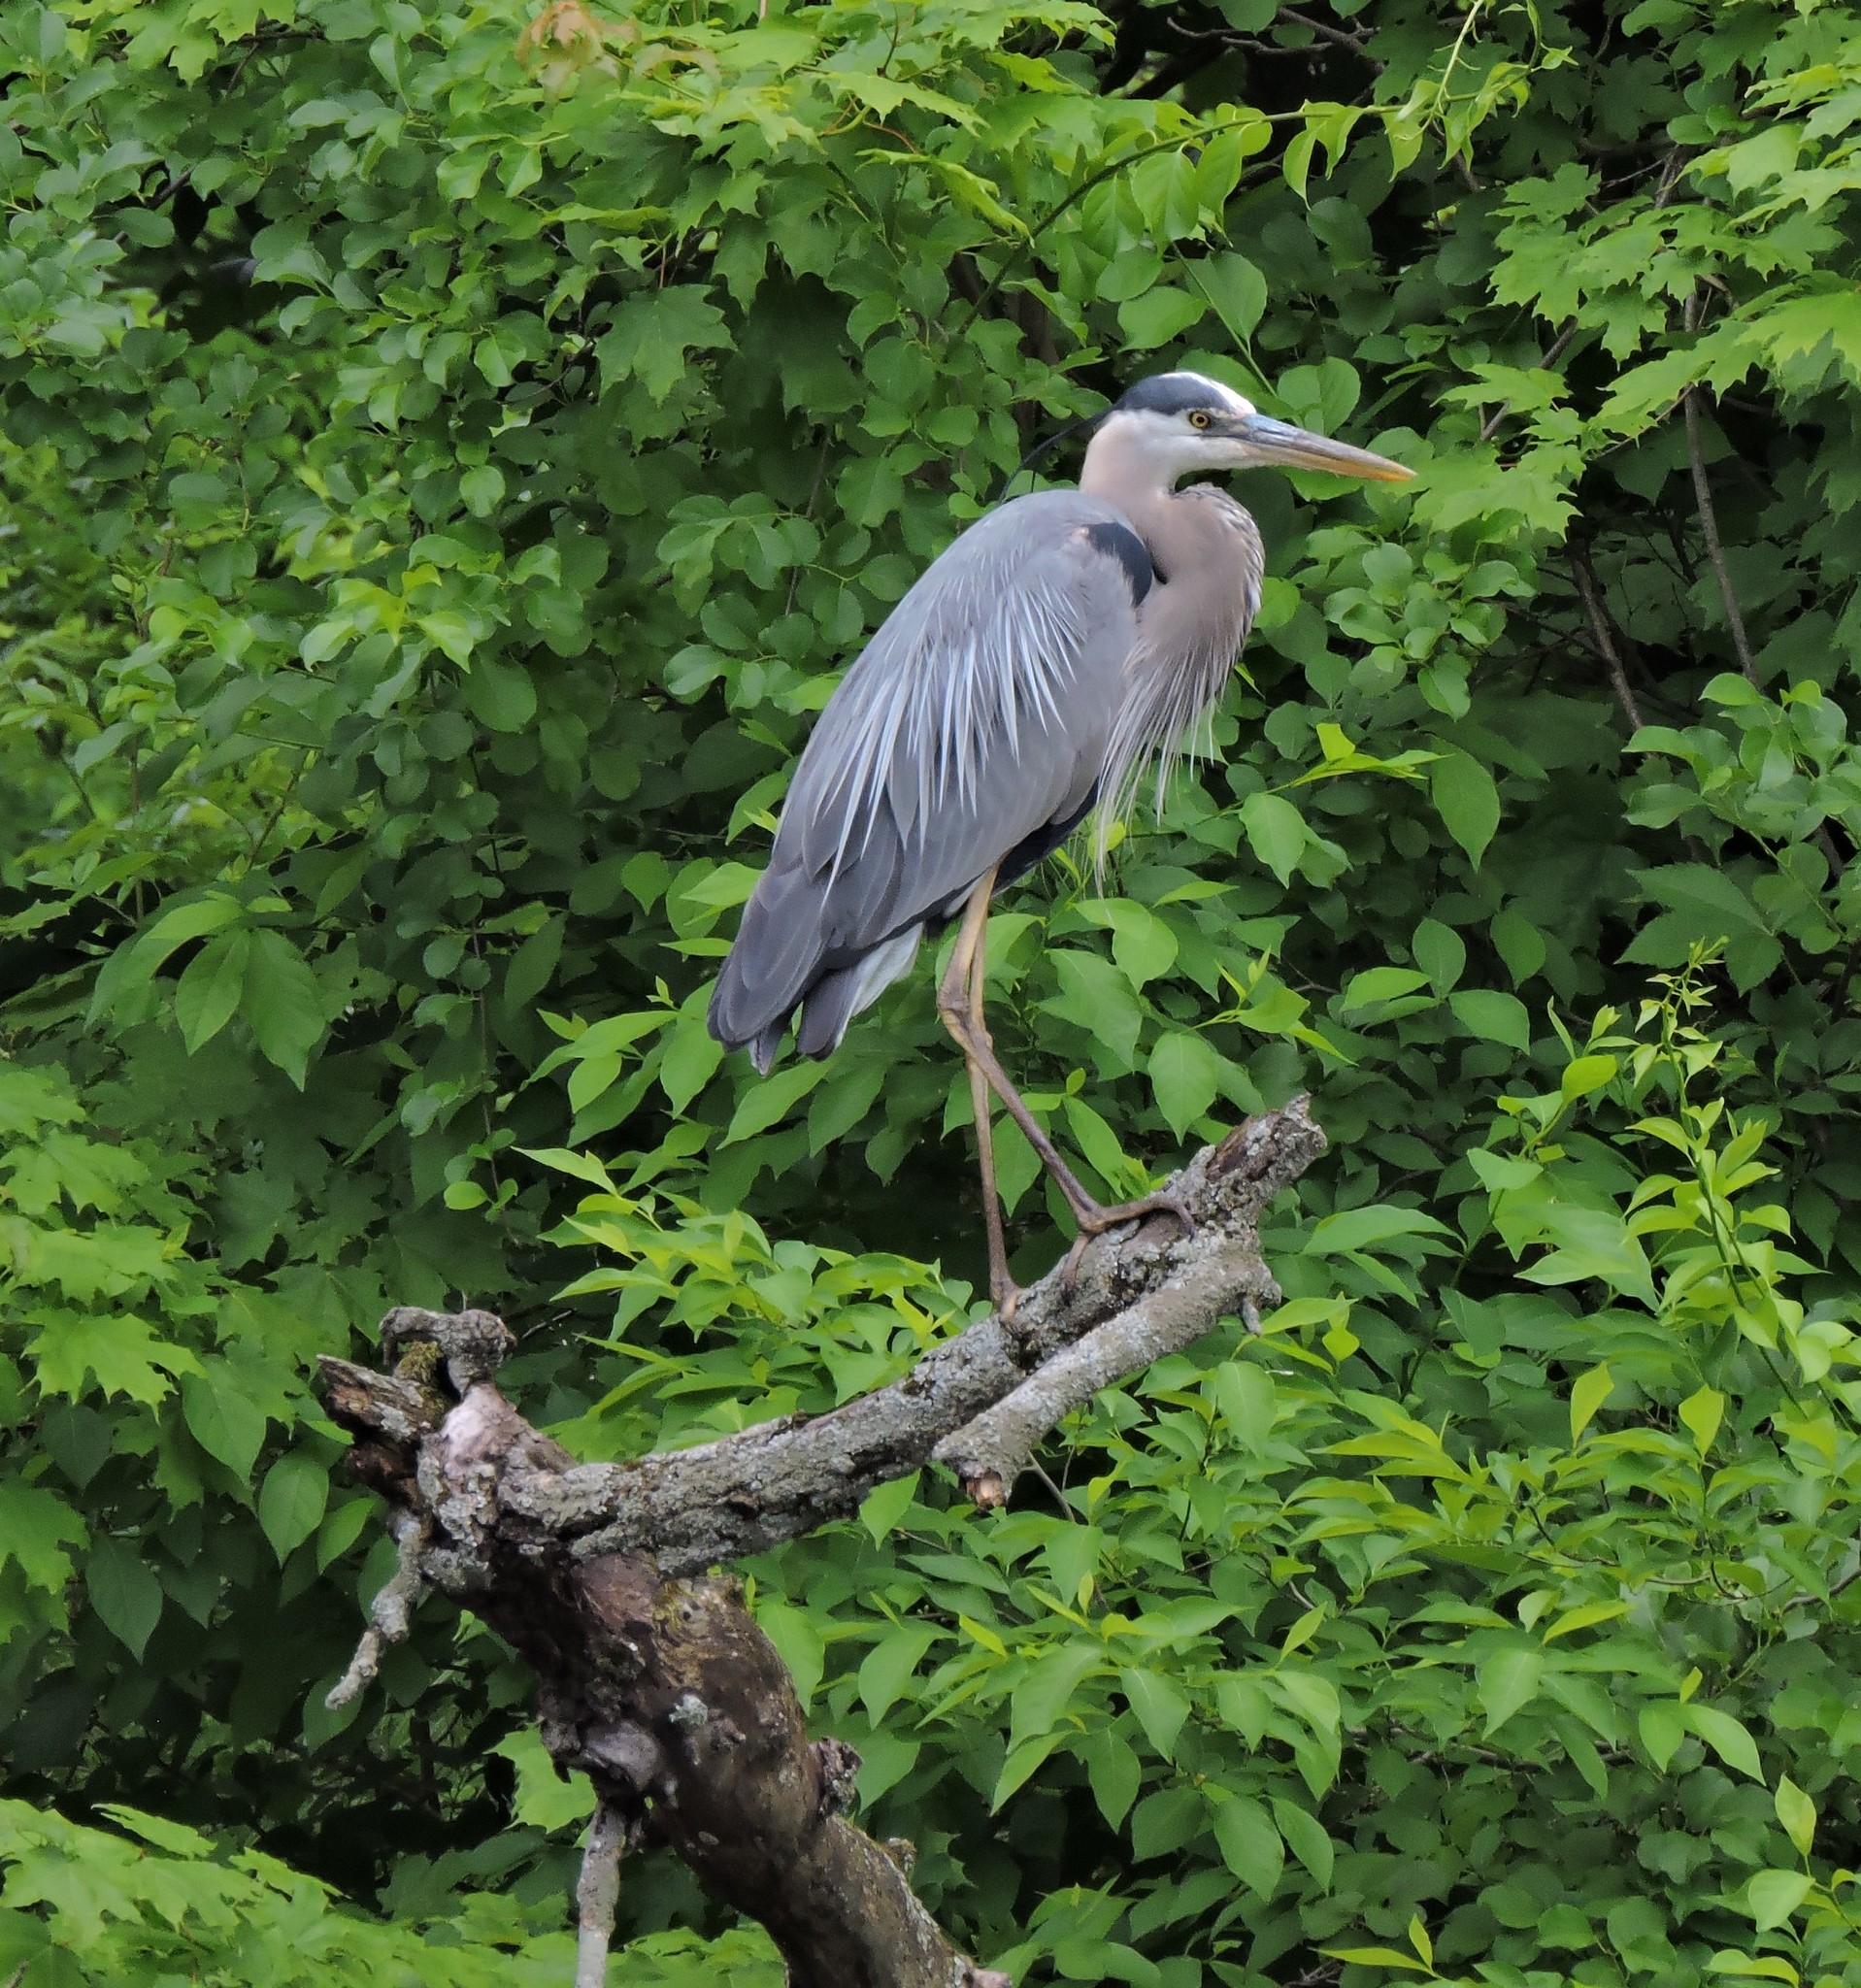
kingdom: Animalia
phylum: Chordata
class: Aves
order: Pelecaniformes
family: Ardeidae
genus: Ardea
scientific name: Ardea herodias
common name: Great blue heron
